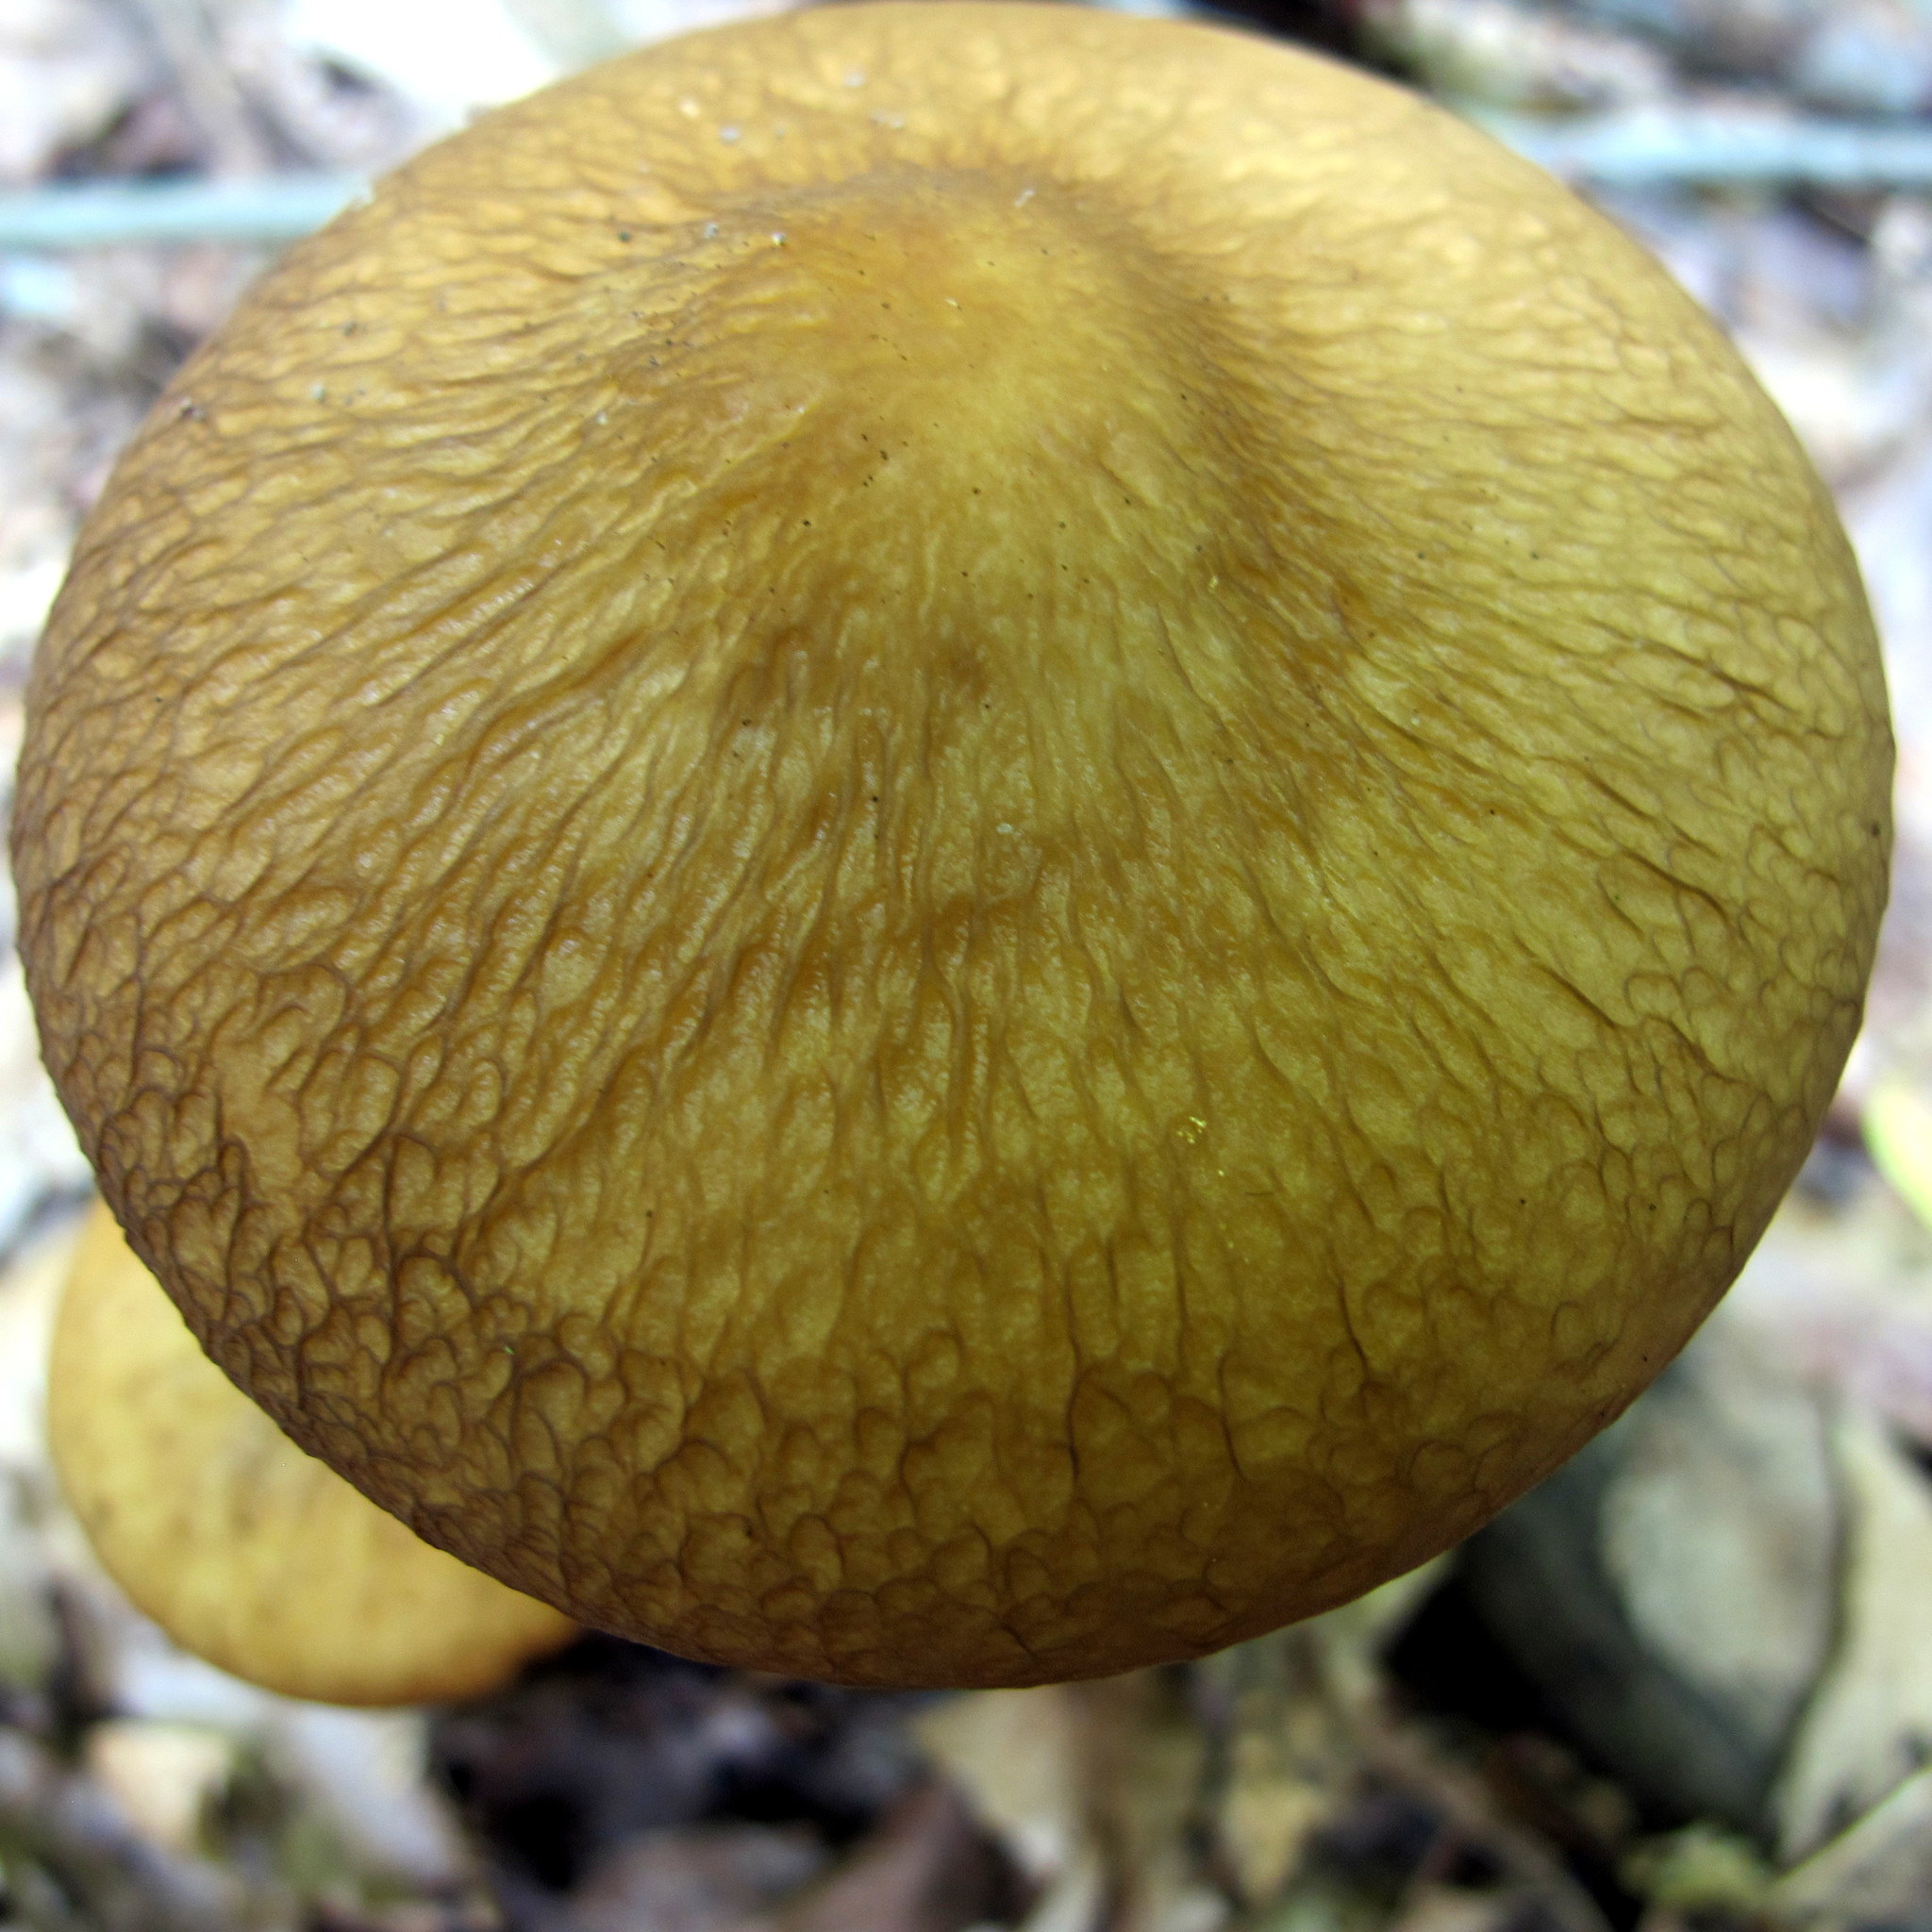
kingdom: Fungi
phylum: Basidiomycota
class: Agaricomycetes
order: Agaricales
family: Physalacriaceae
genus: Hymenopellis
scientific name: Hymenopellis furfuracea
